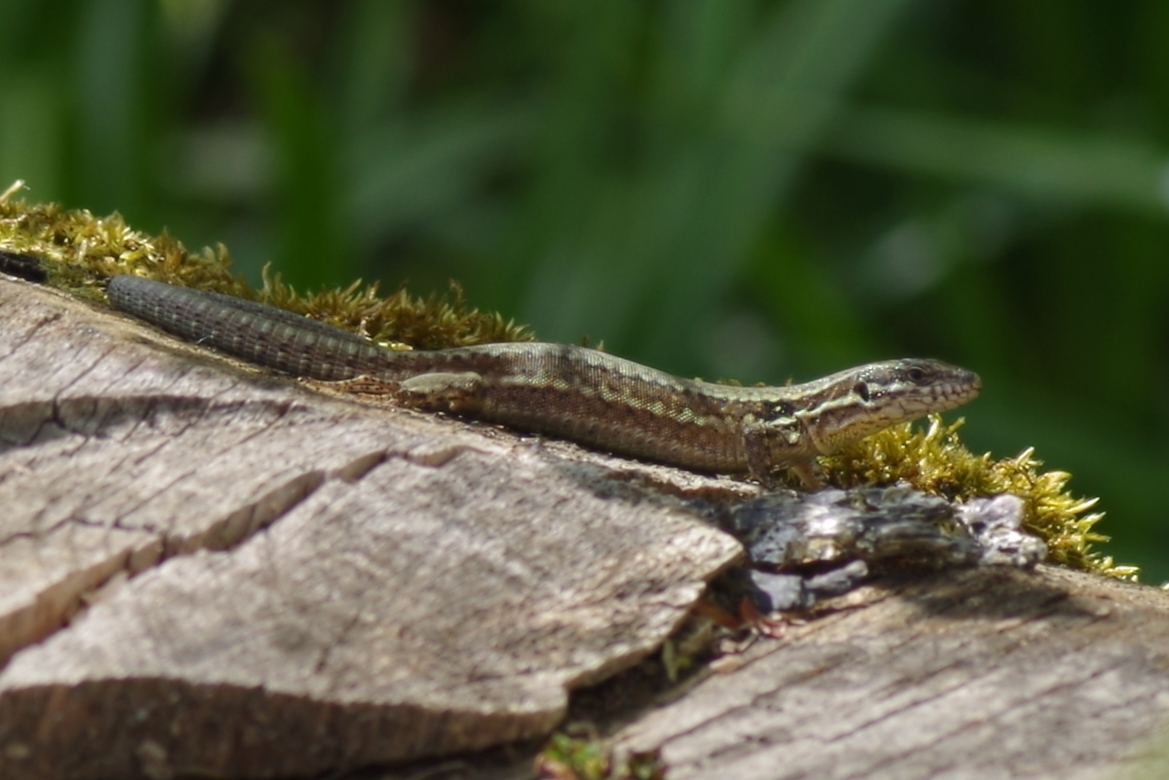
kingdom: Animalia
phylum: Chordata
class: Squamata
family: Lacertidae
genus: Podarcis
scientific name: Podarcis muralis
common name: Common wall lizard
